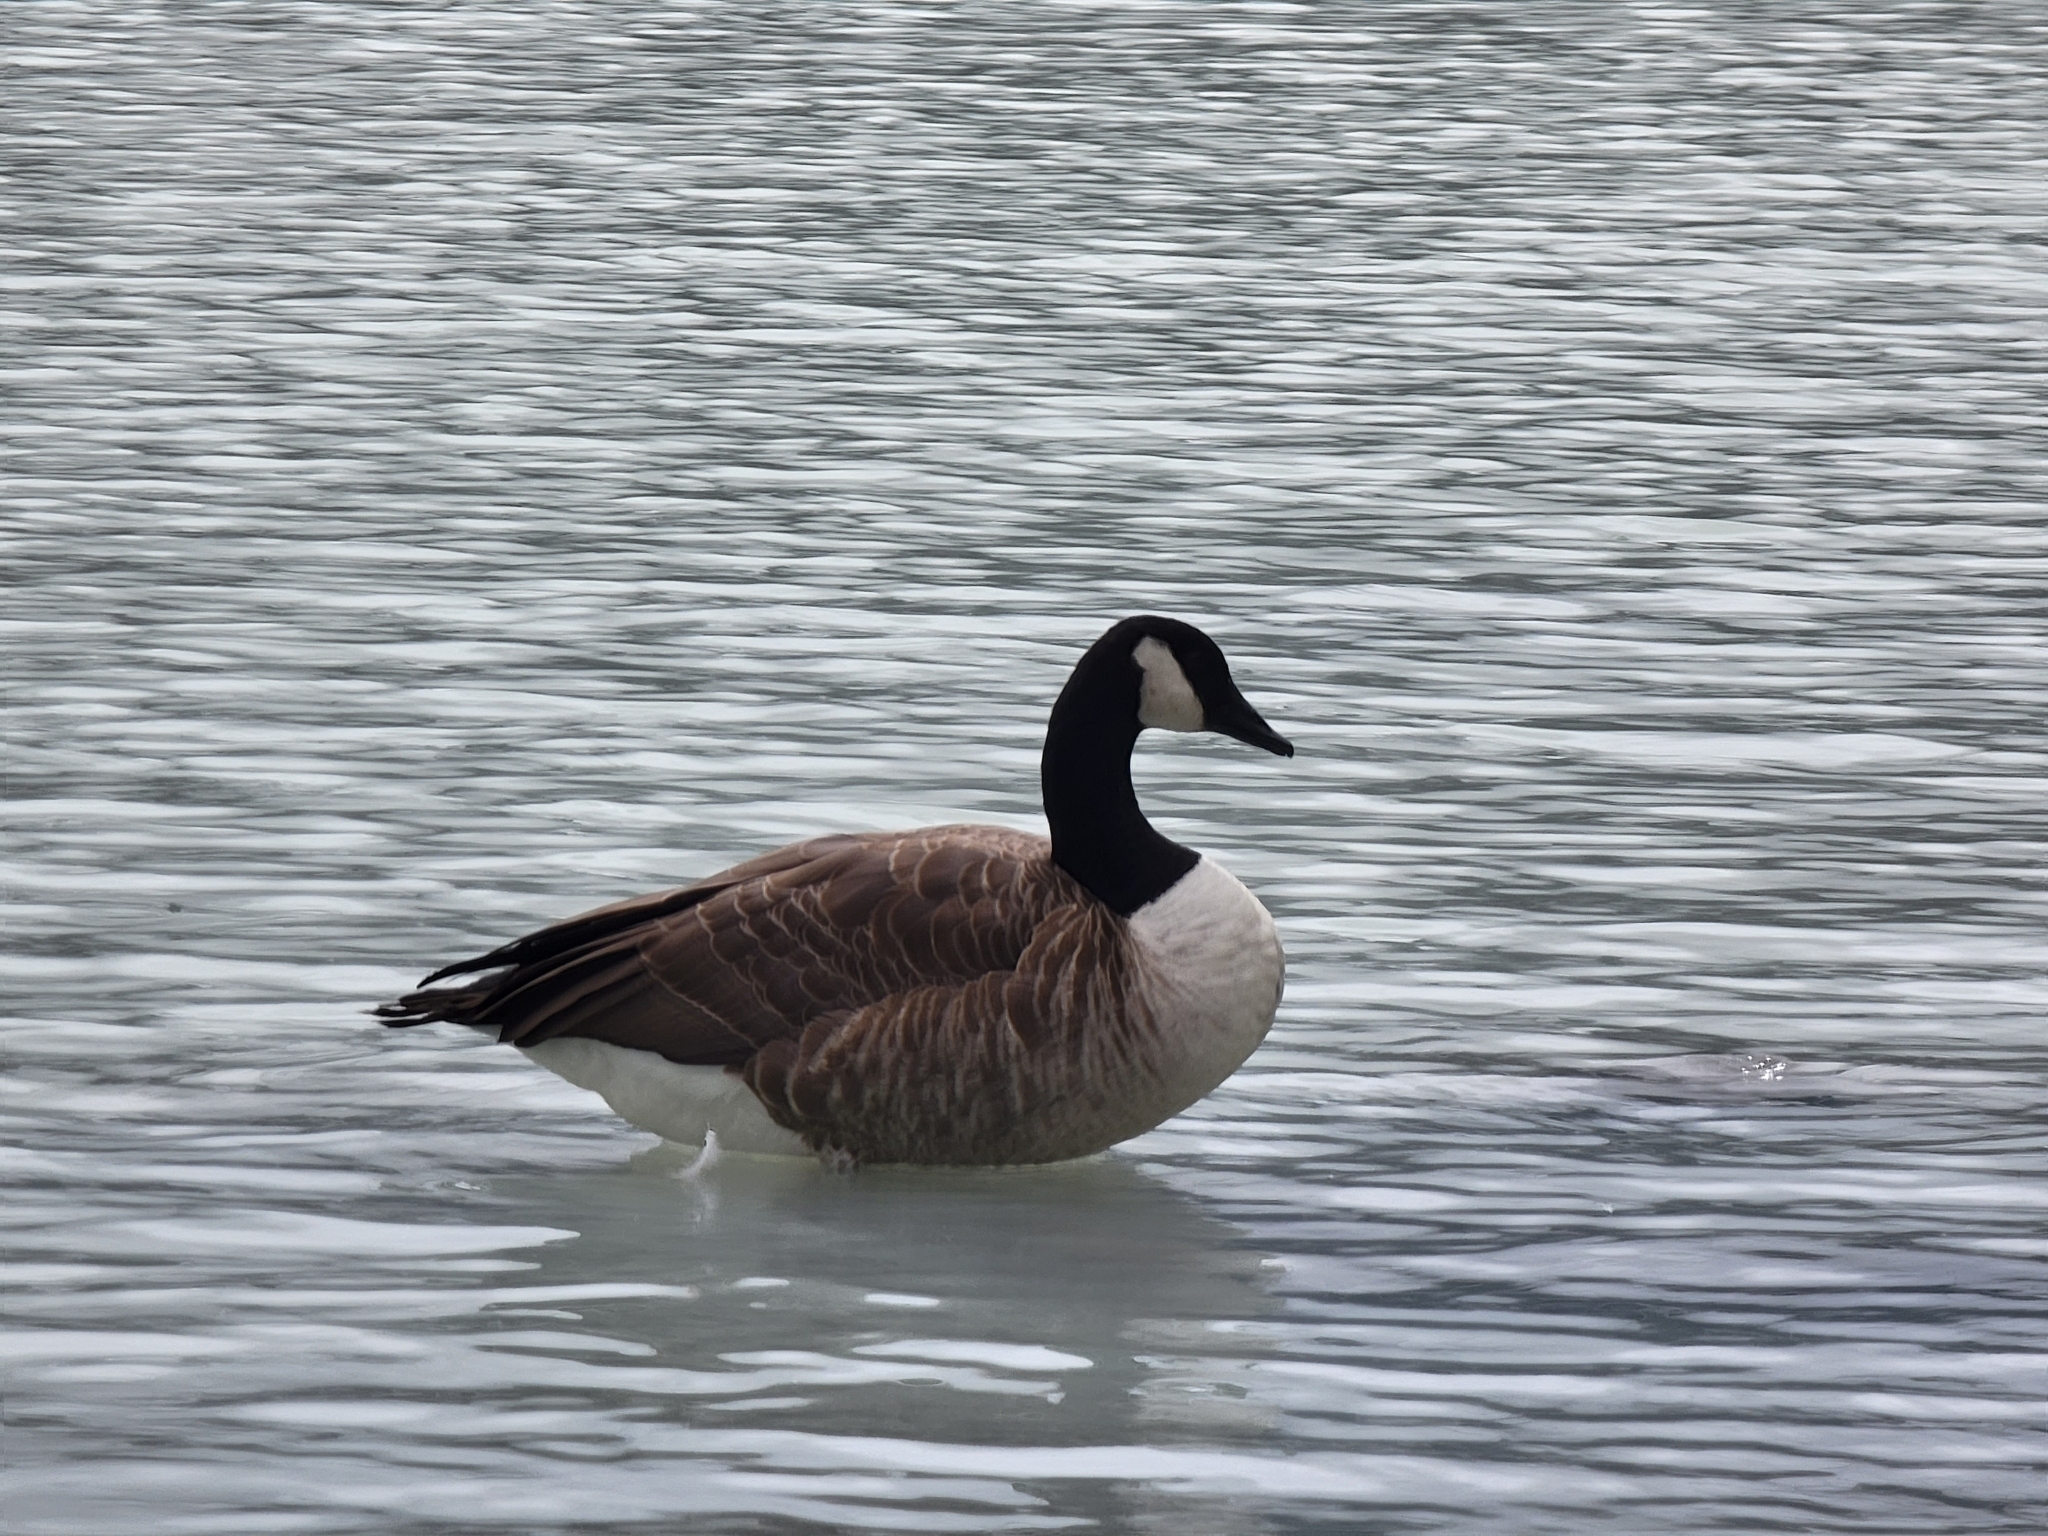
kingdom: Animalia
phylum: Chordata
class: Aves
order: Anseriformes
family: Anatidae
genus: Branta
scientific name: Branta canadensis
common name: Canada goose
